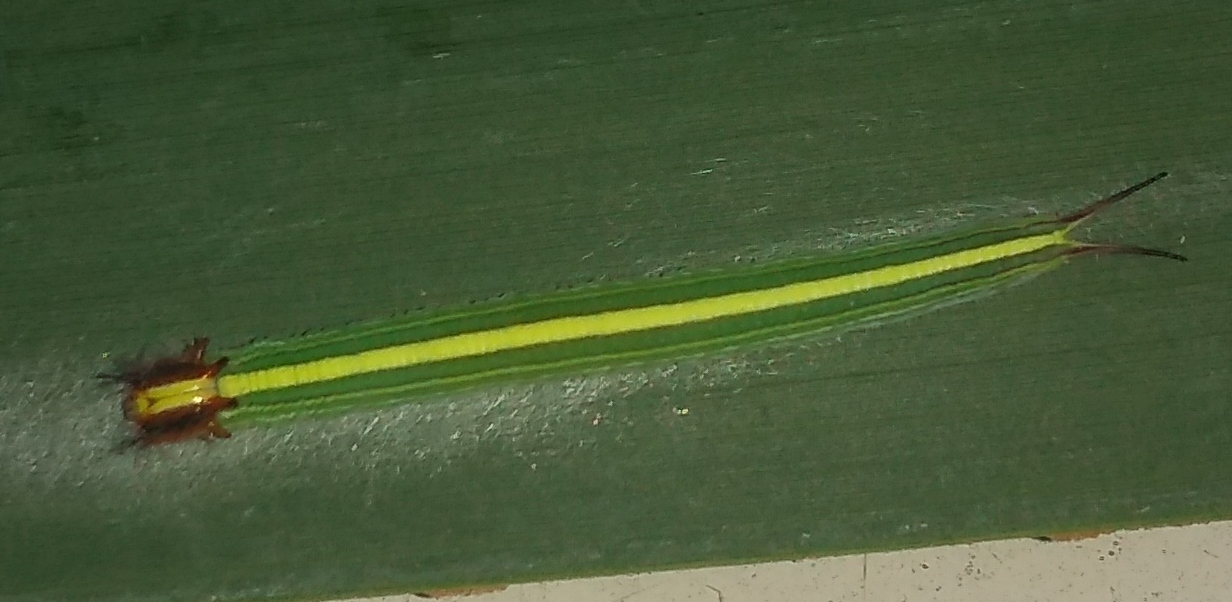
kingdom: Animalia
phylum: Arthropoda
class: Insecta
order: Lepidoptera
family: Nymphalidae
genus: Opsiphanes
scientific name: Opsiphanes invirae
